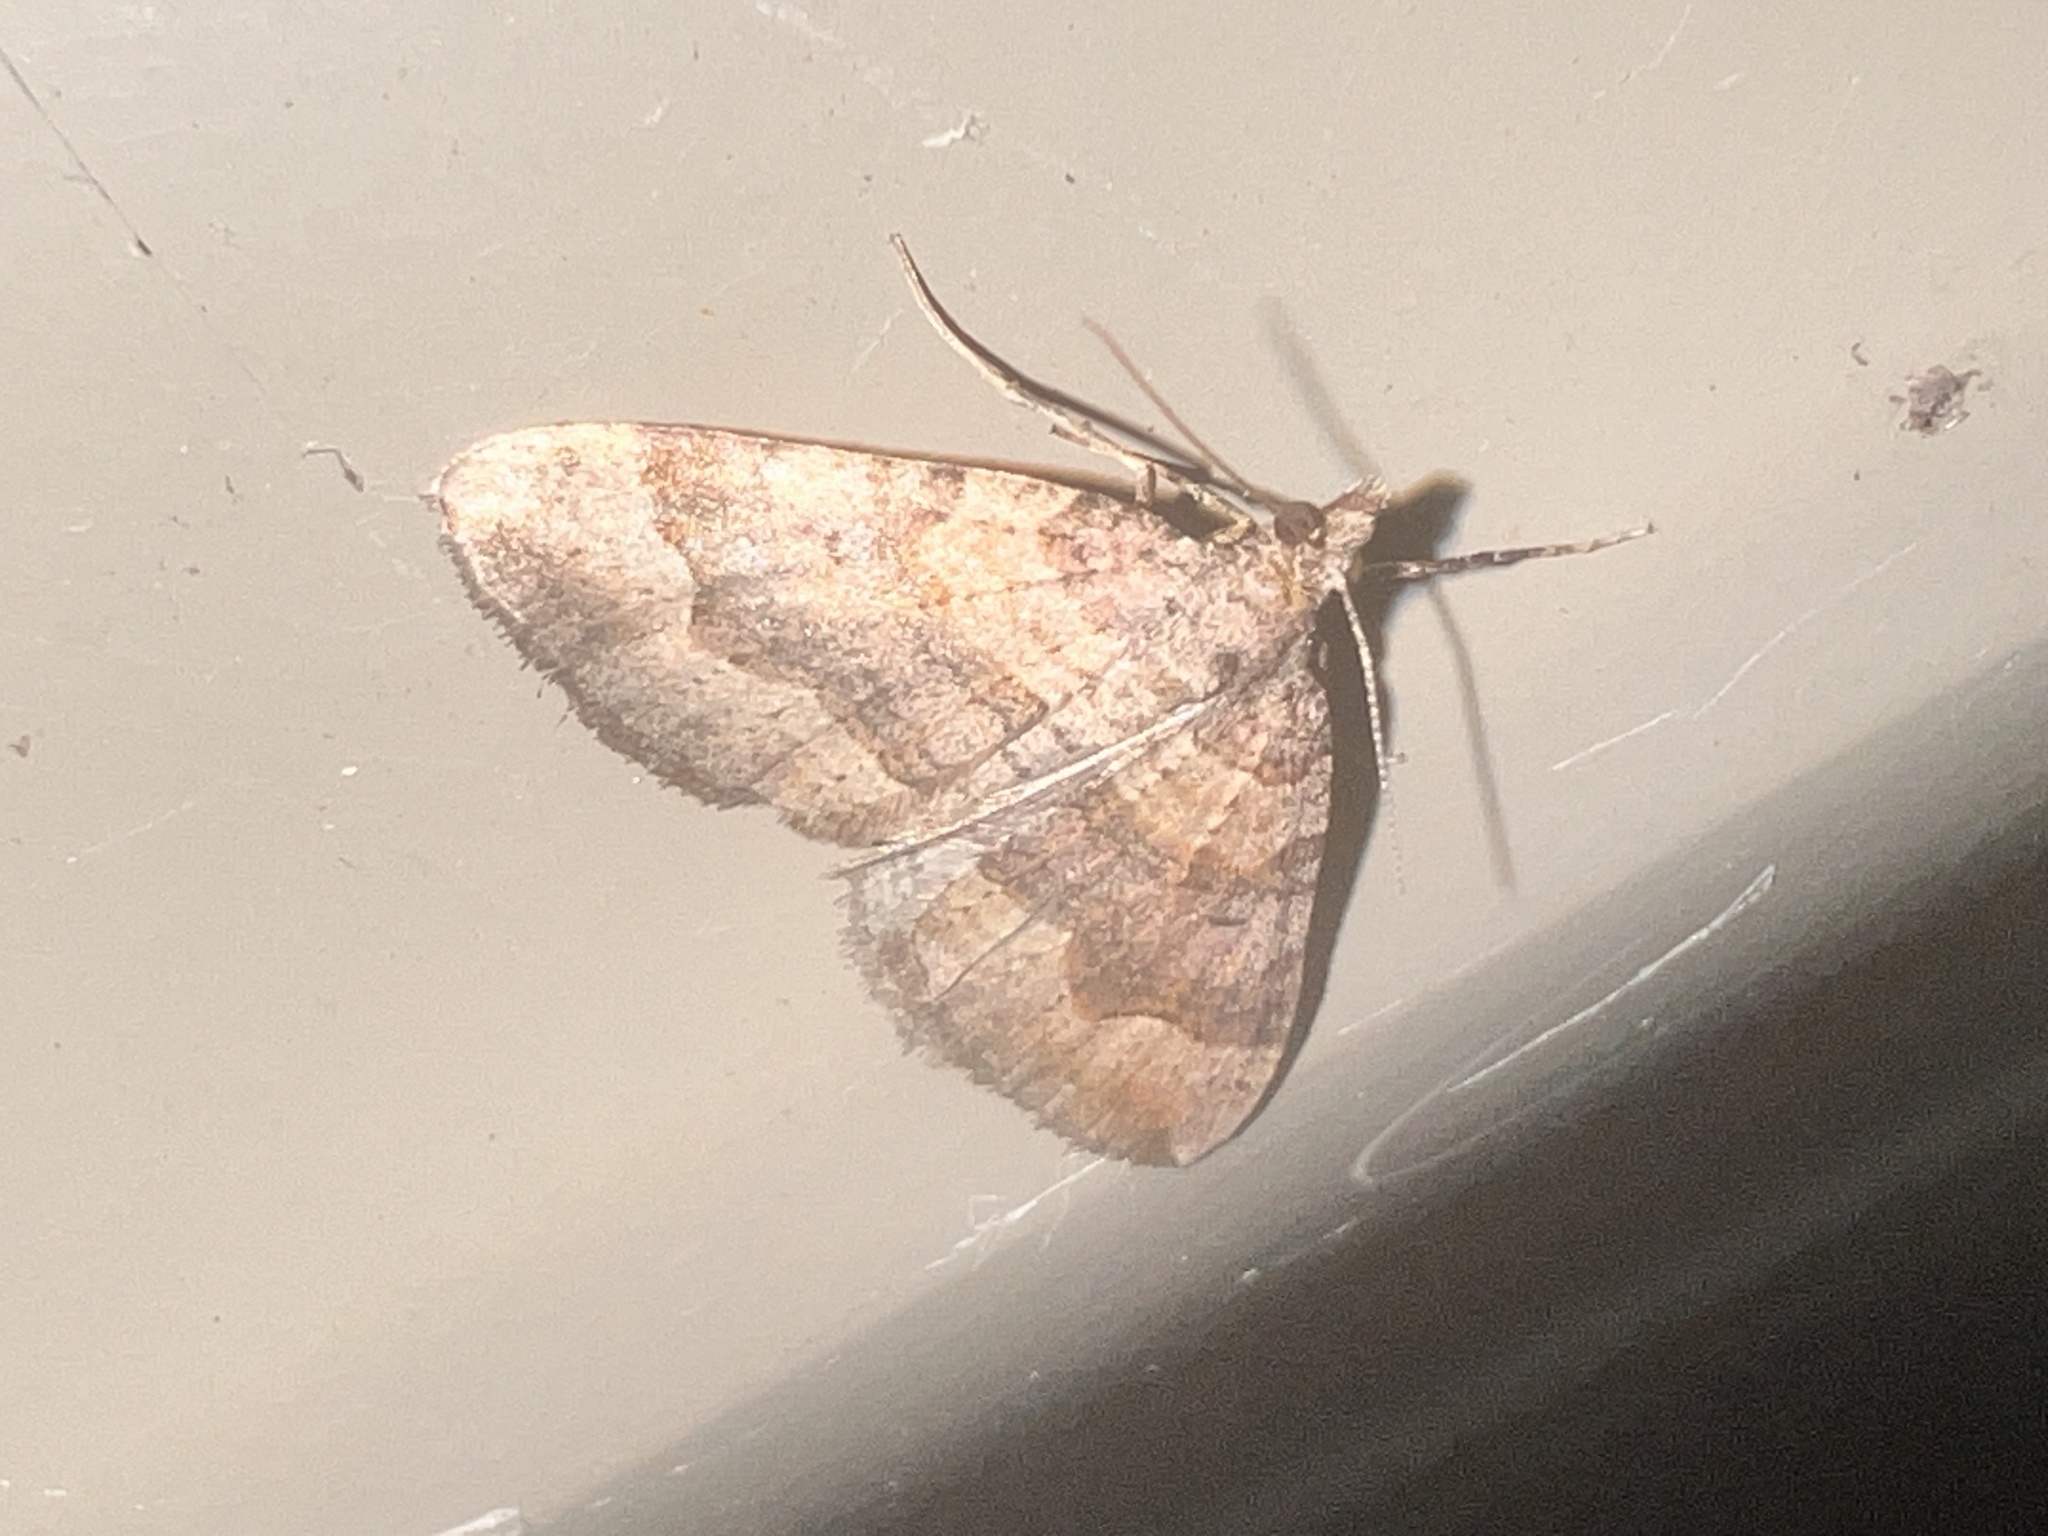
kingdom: Animalia
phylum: Arthropoda
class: Insecta
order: Lepidoptera
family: Geometridae
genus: Epyaxa
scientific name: Epyaxa rosearia
